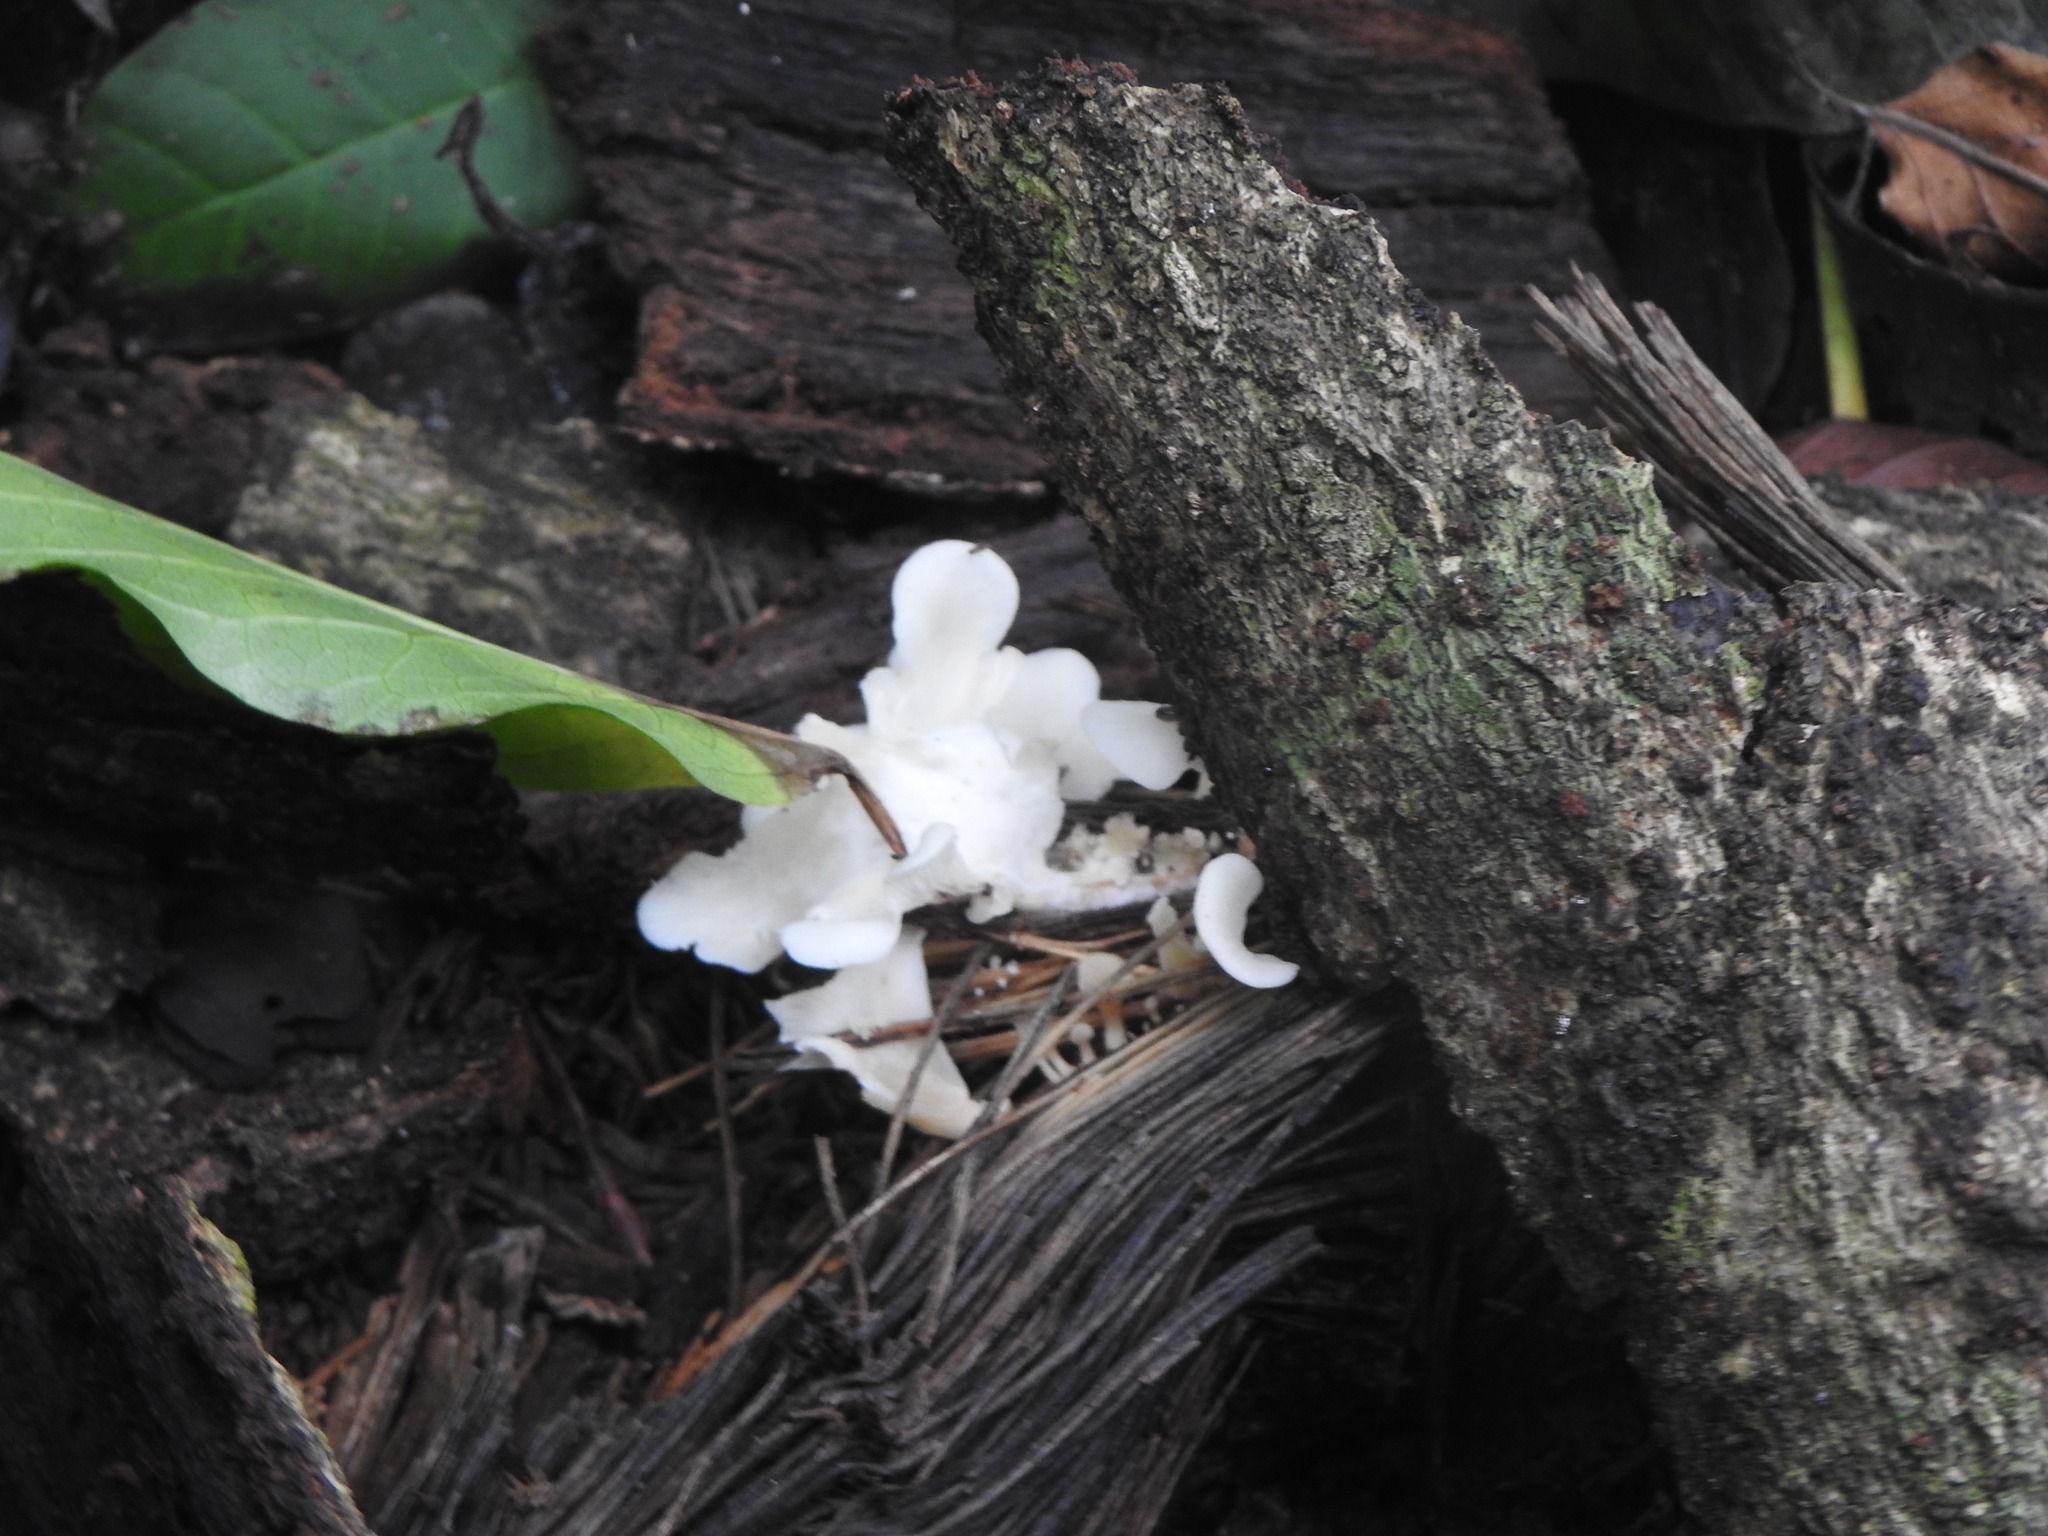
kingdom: Fungi
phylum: Basidiomycota
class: Agaricomycetes
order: Polyporales
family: Polyporaceae
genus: Favolus
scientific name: Favolus tenuiculus
